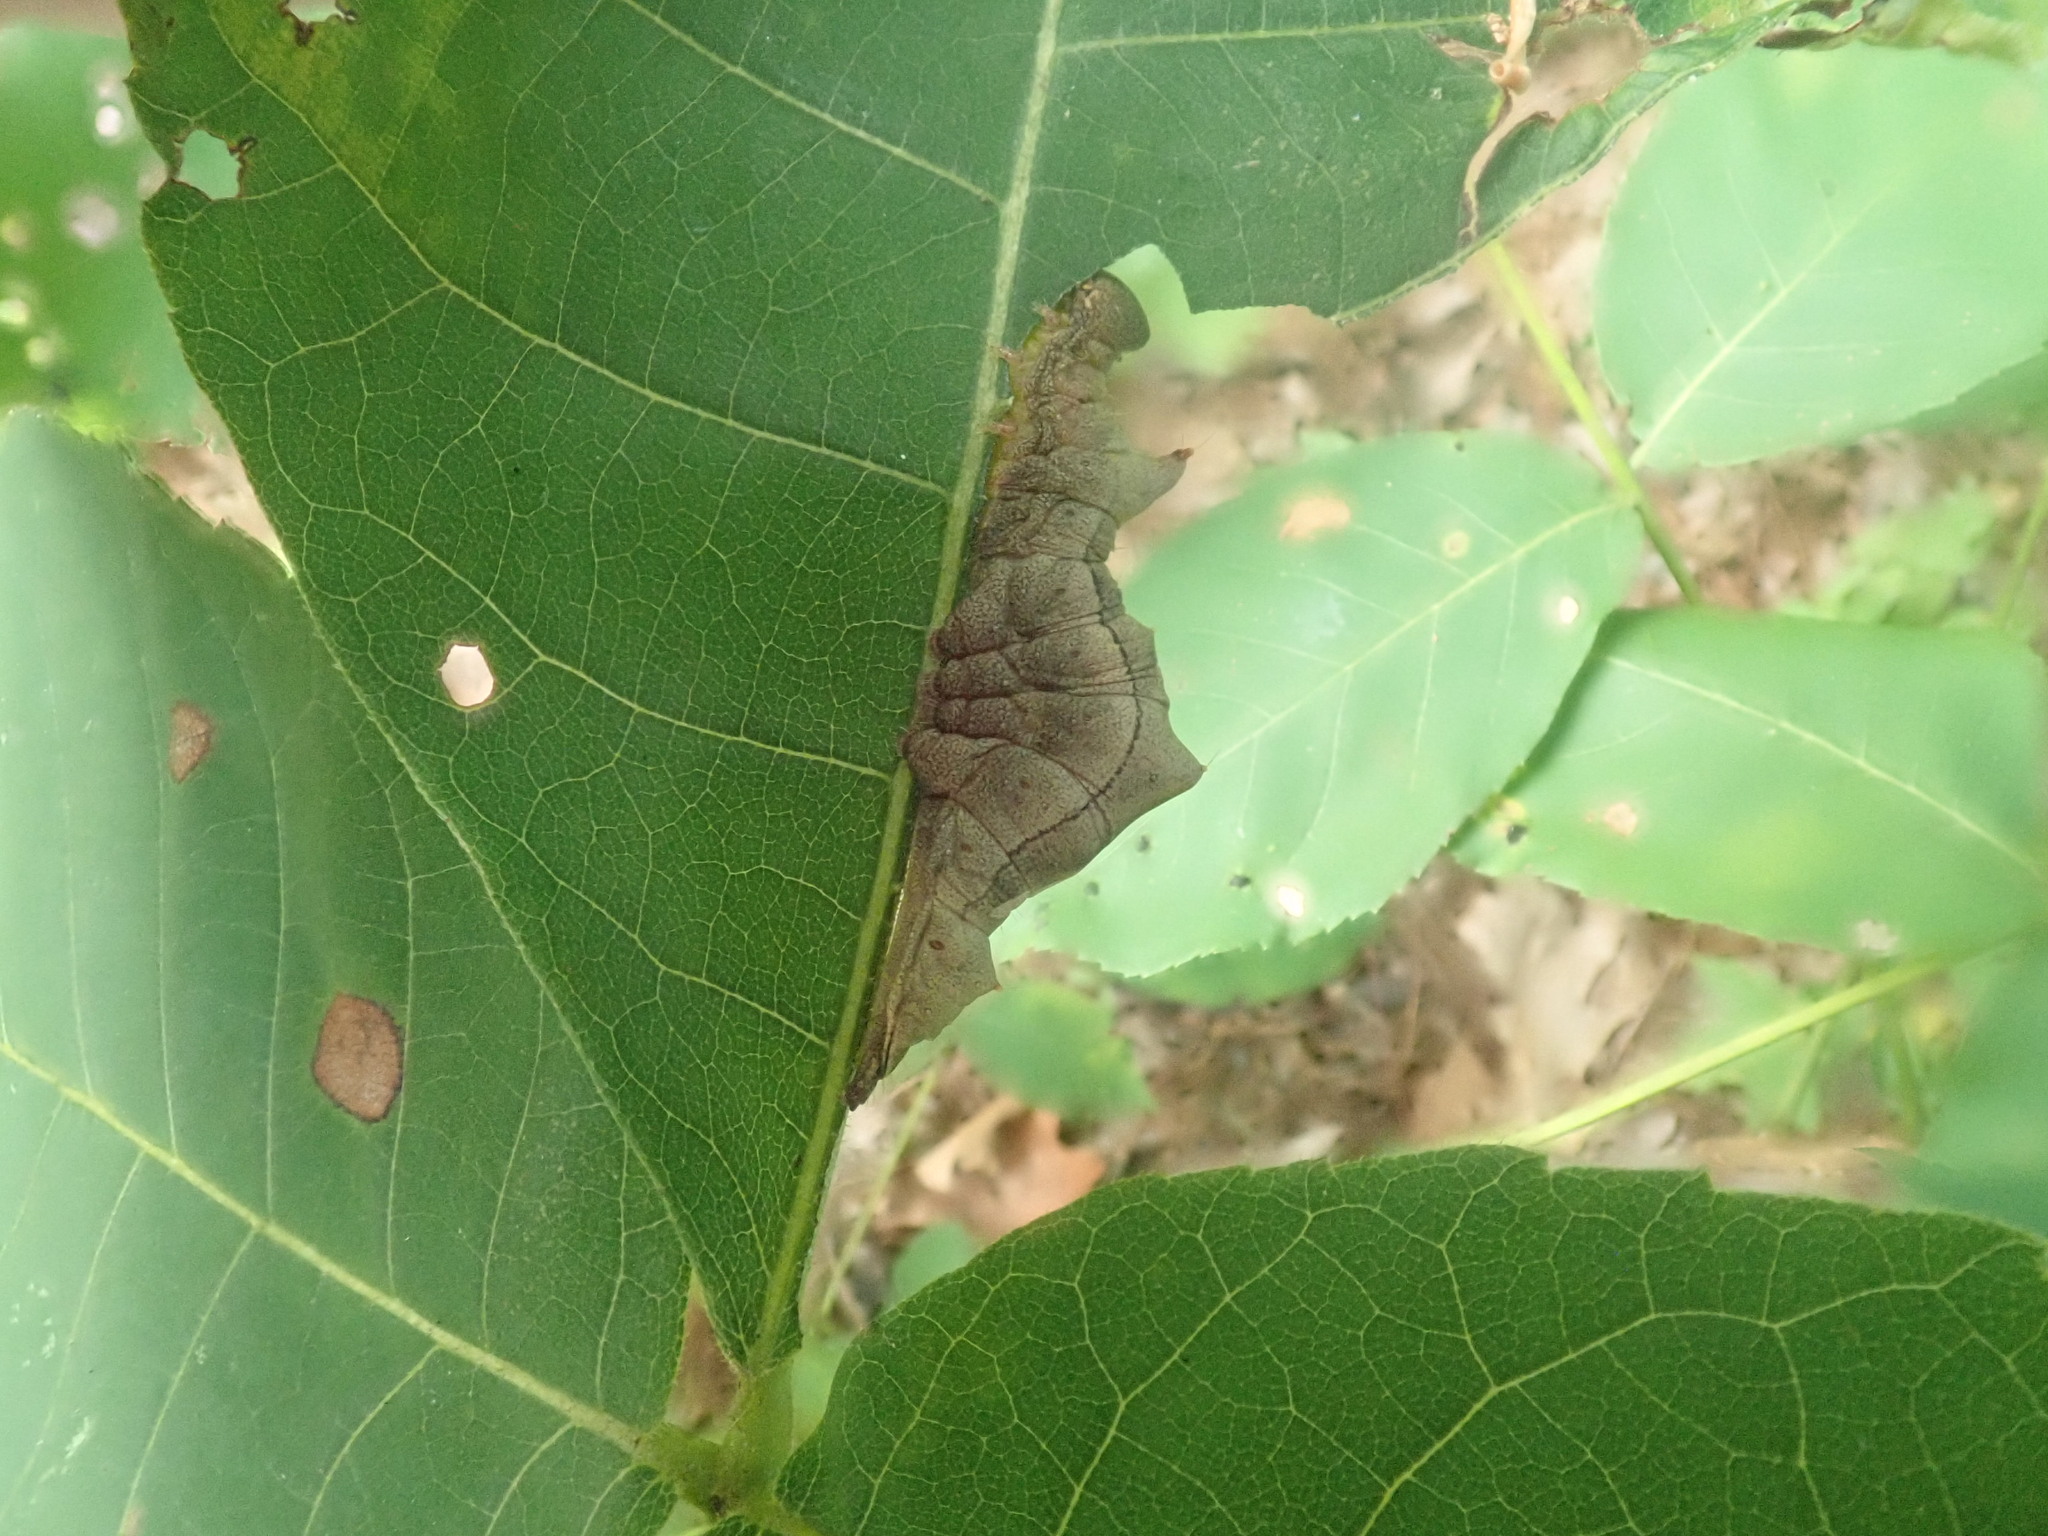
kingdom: Animalia
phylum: Arthropoda
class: Insecta
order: Lepidoptera
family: Notodontidae
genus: Schizura
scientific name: Schizura
